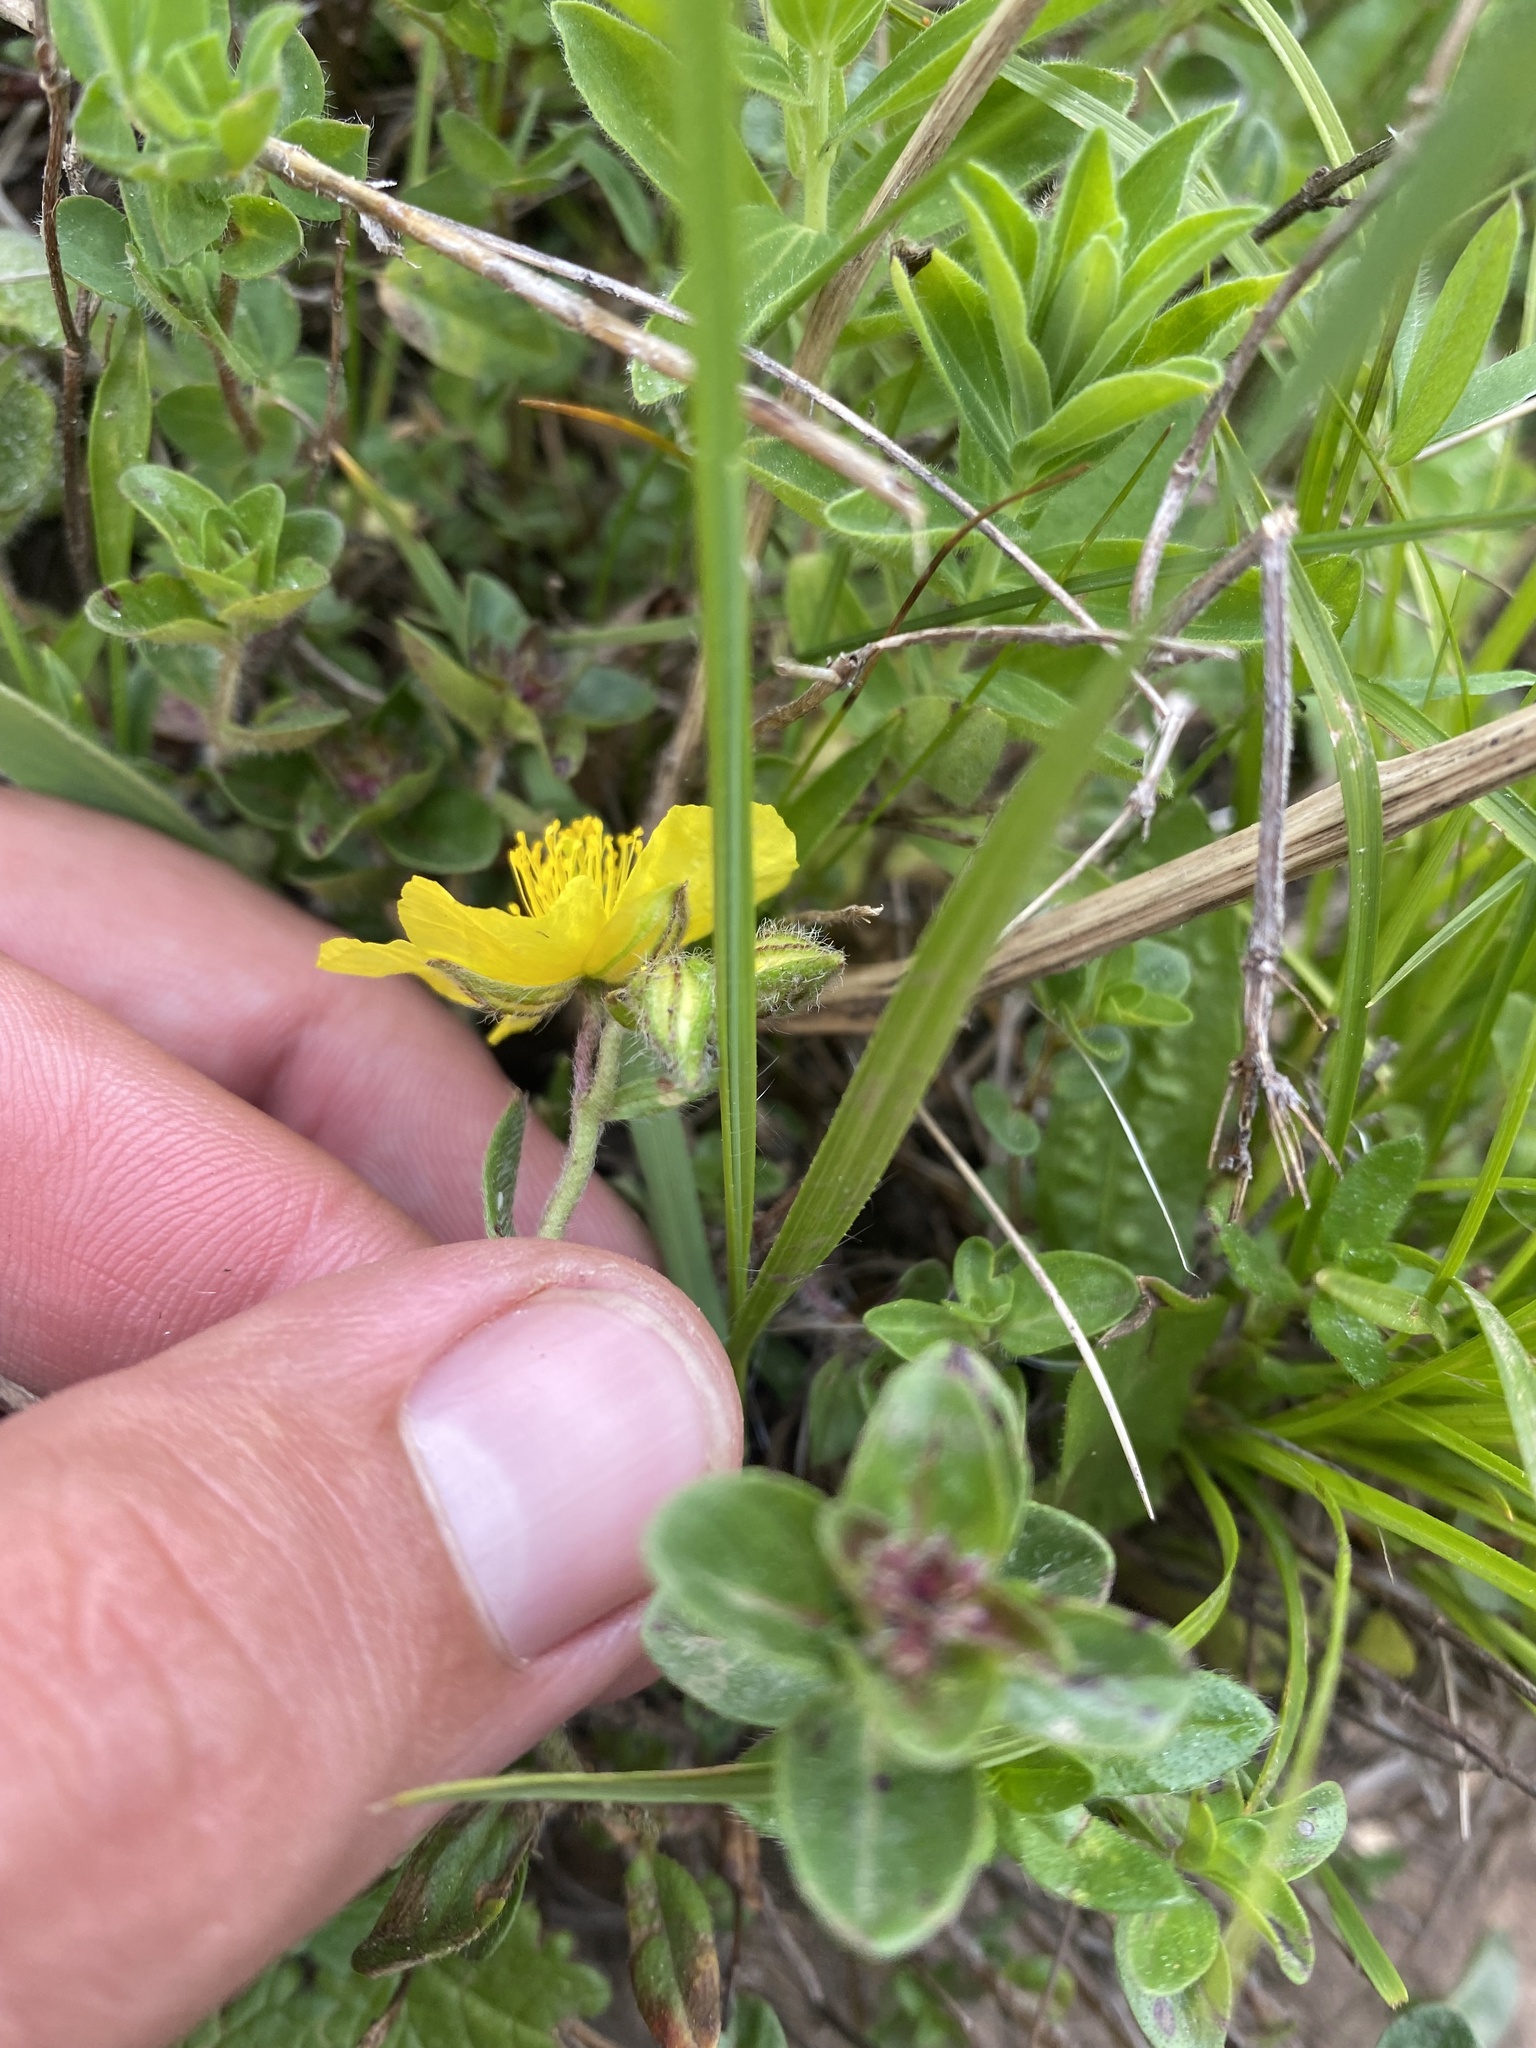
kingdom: Plantae
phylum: Tracheophyta
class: Magnoliopsida
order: Malvales
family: Cistaceae
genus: Helianthemum
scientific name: Helianthemum nummularium
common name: Common rock-rose
